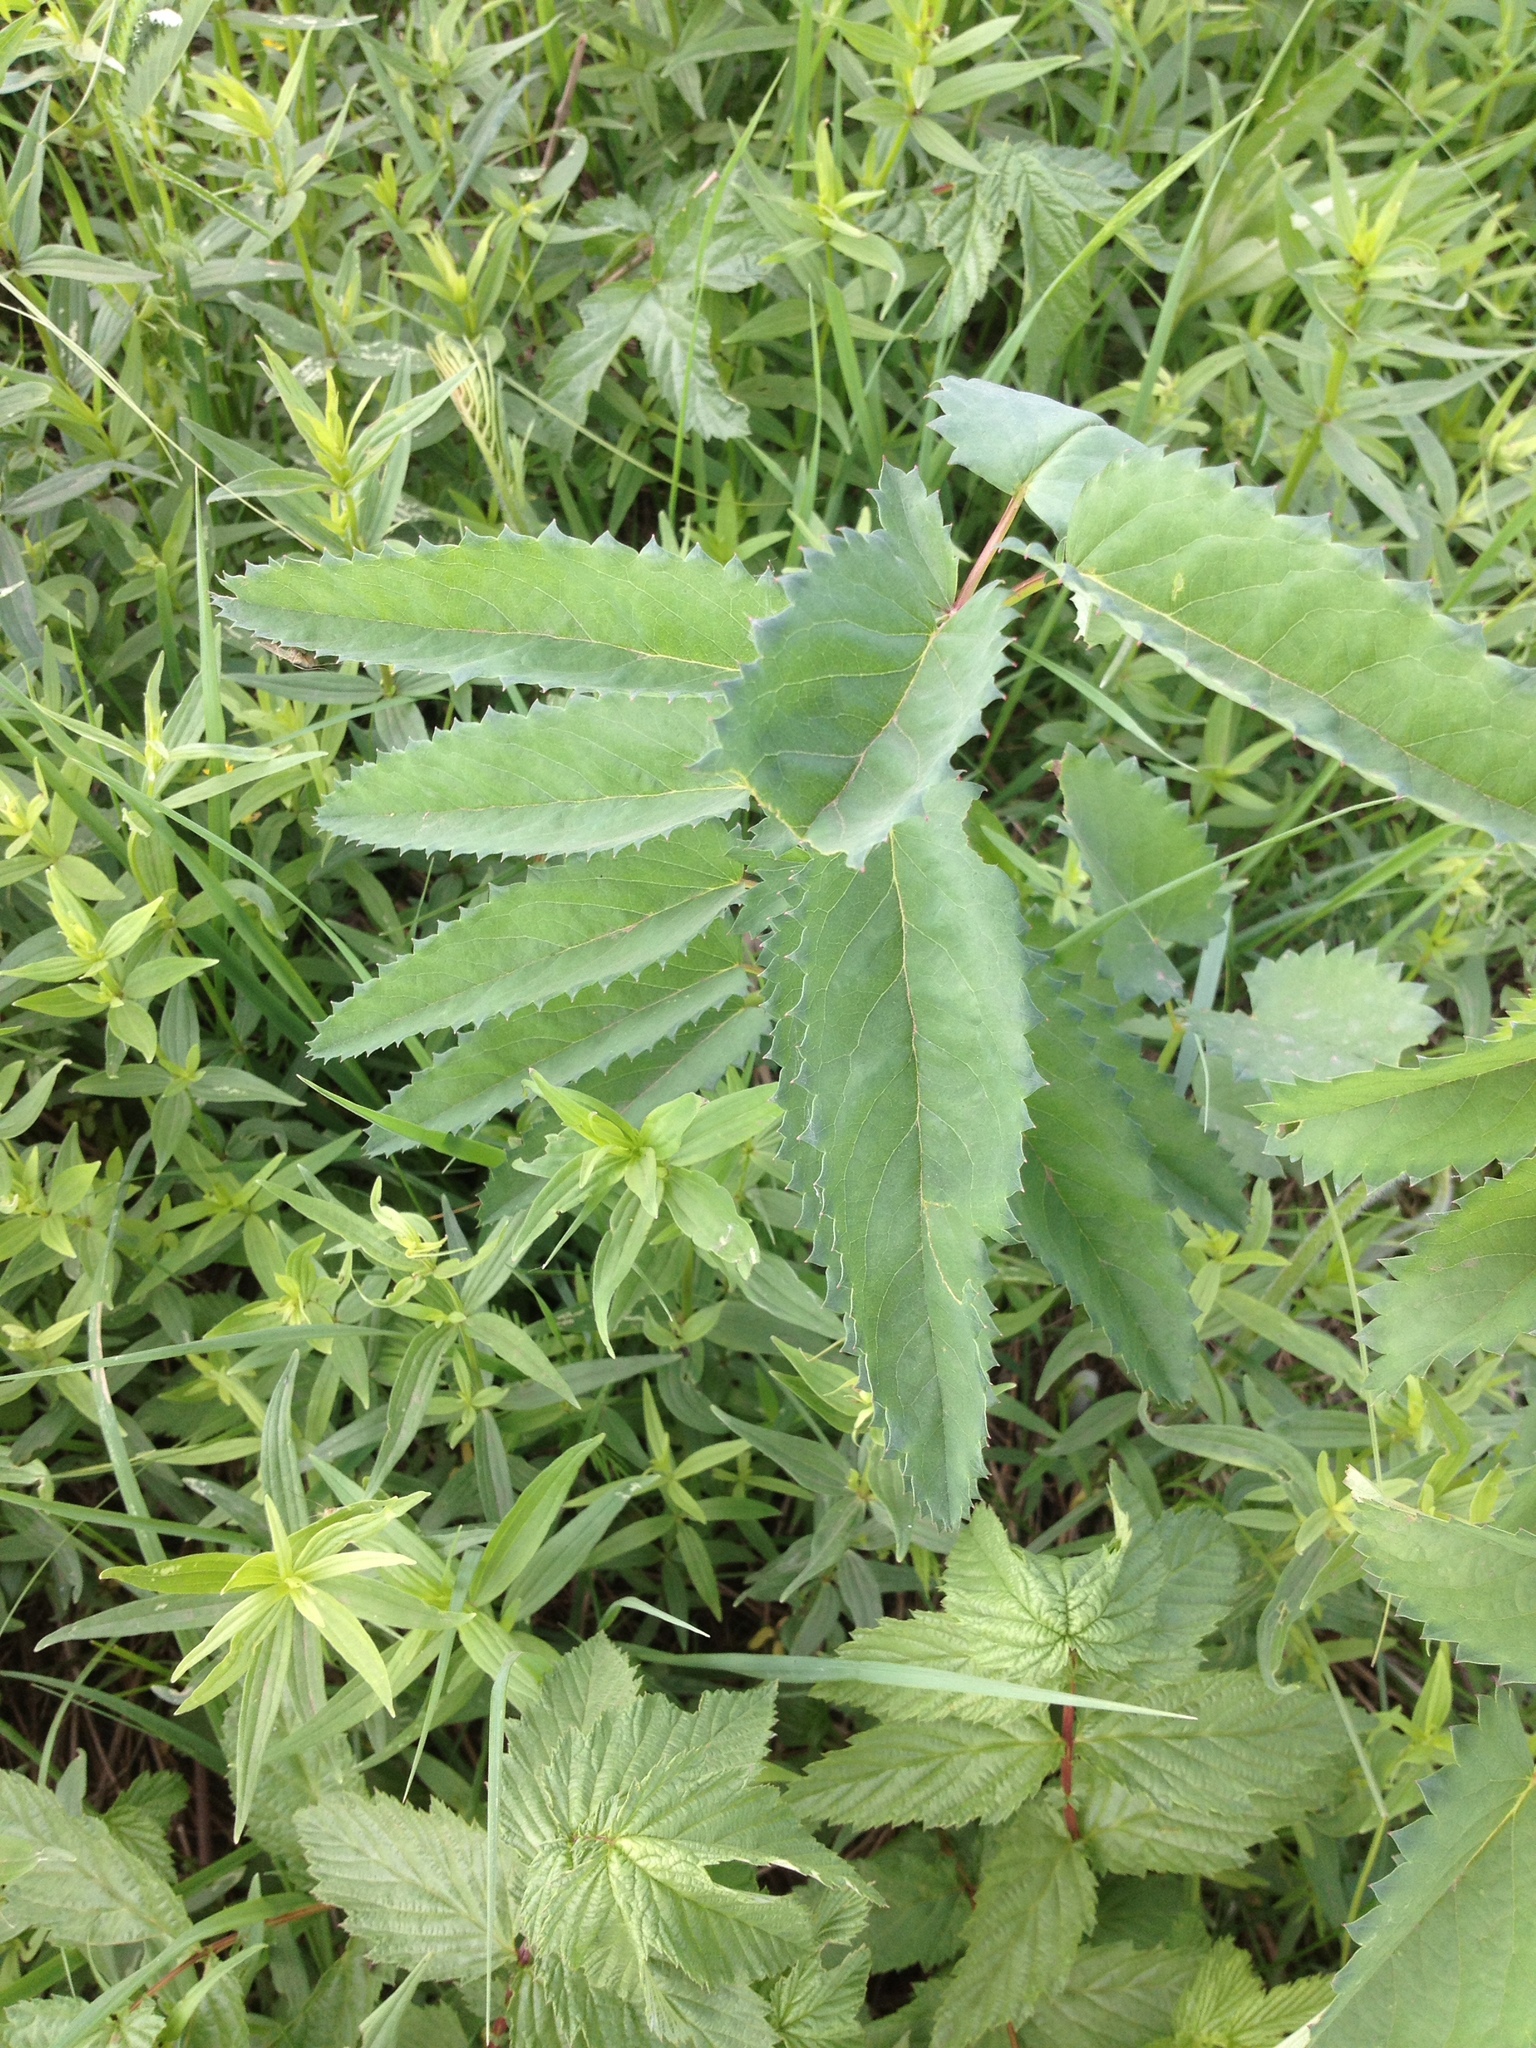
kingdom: Plantae
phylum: Tracheophyta
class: Magnoliopsida
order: Rosales
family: Rosaceae
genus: Sanguisorba
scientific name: Sanguisorba officinalis
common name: Great burnet
